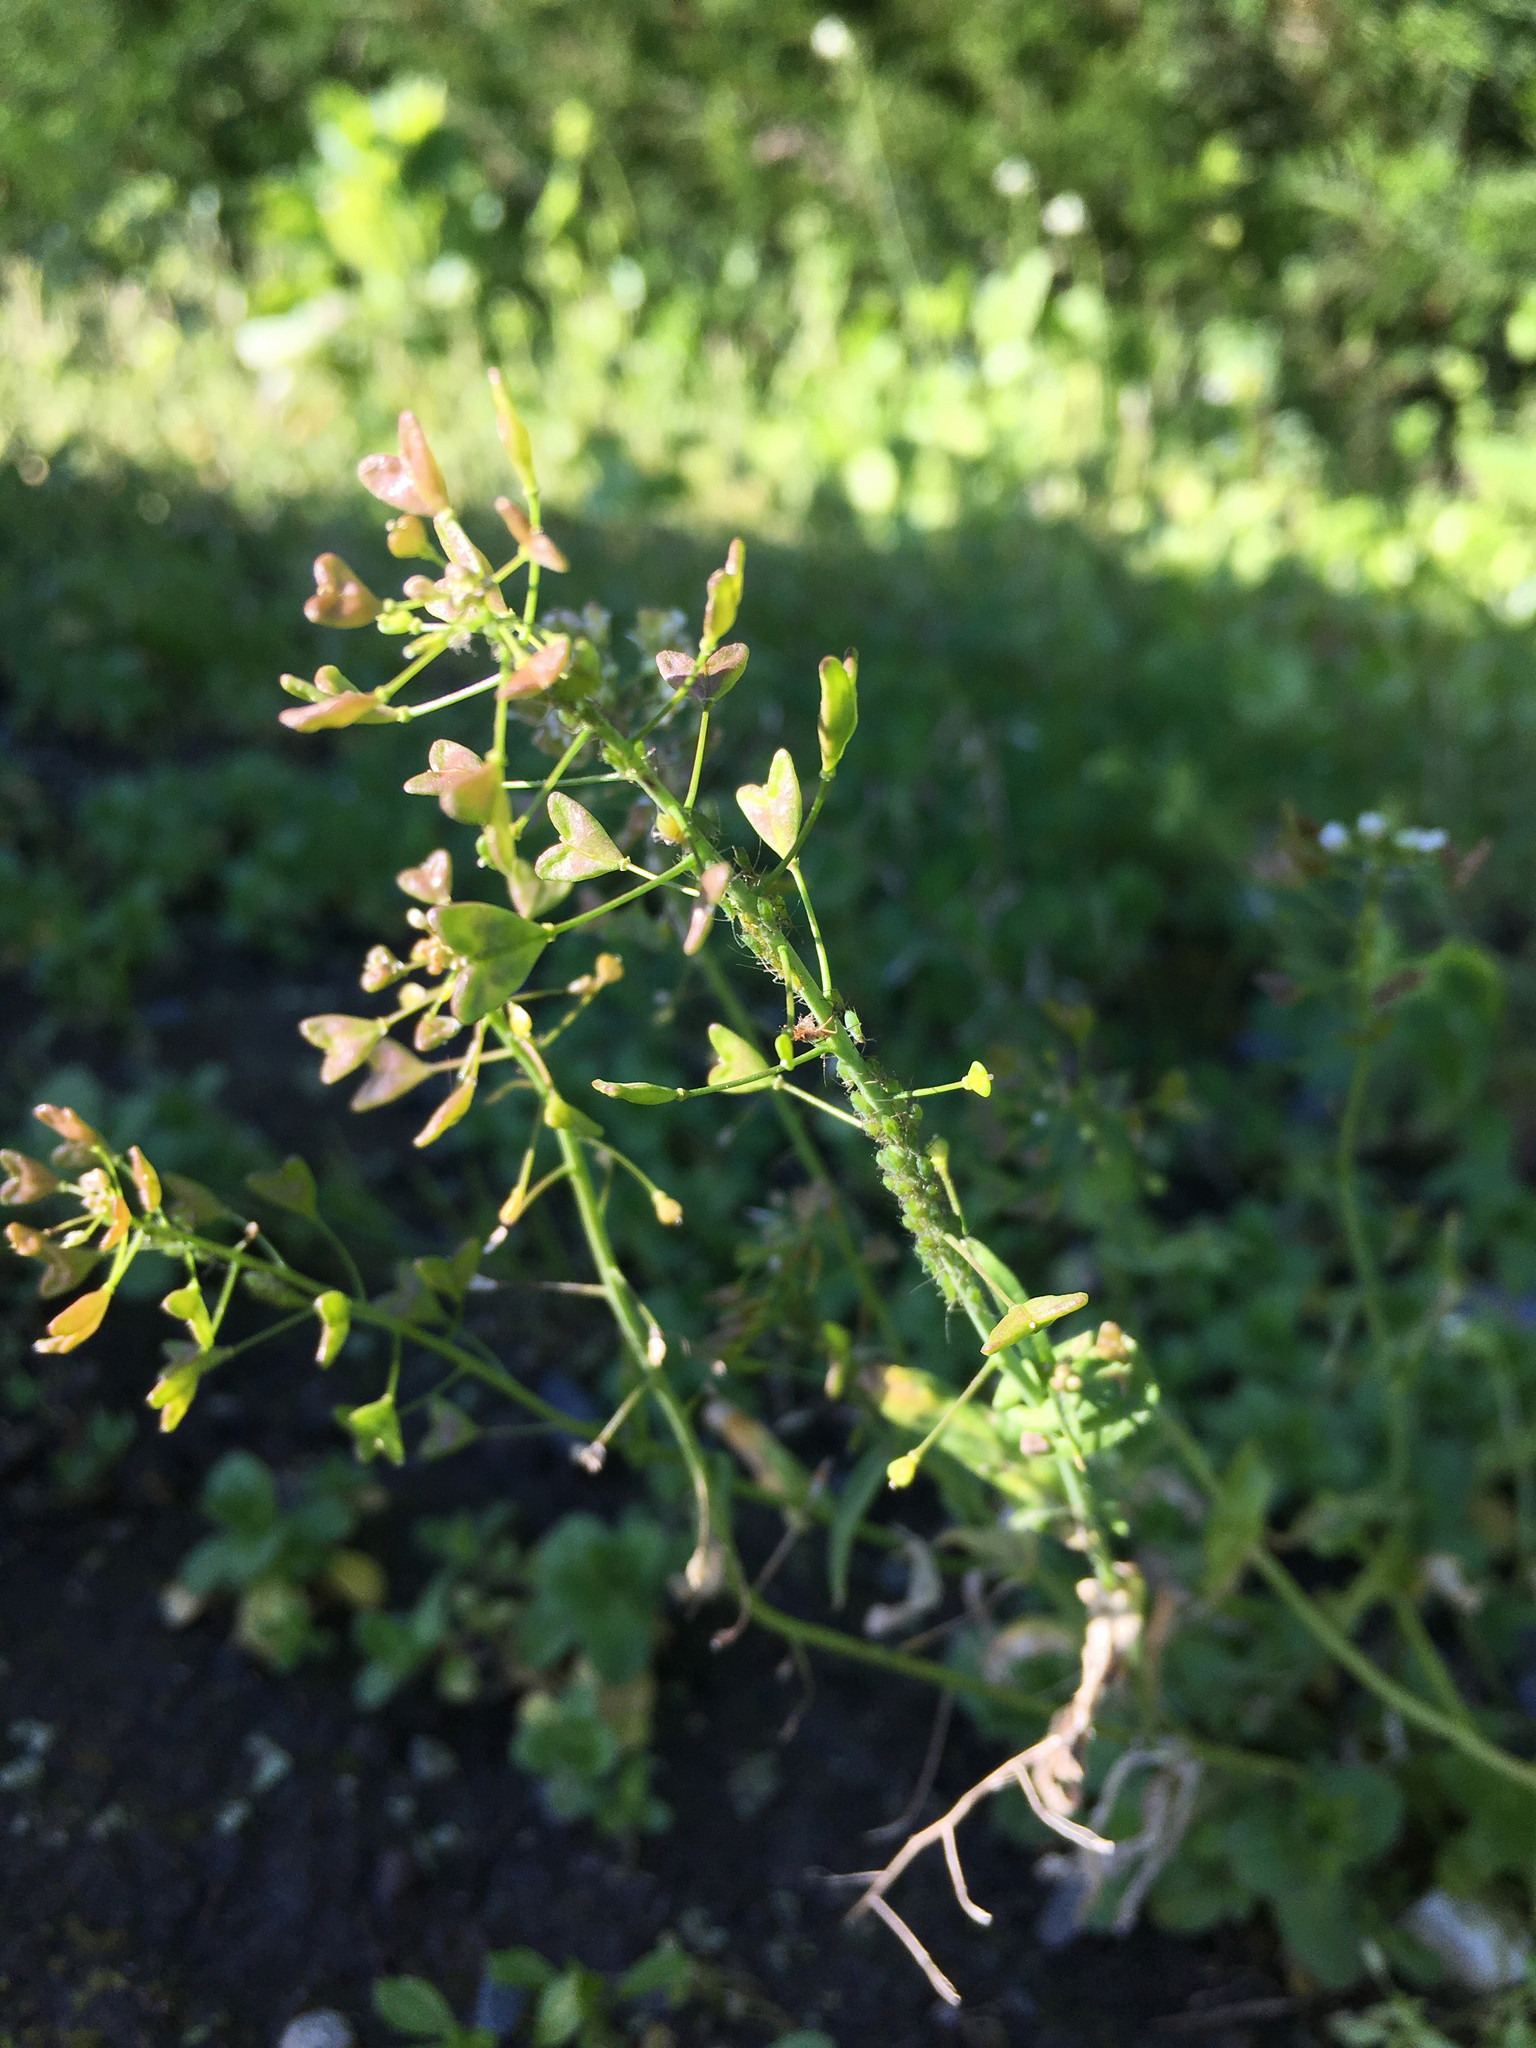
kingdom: Plantae
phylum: Tracheophyta
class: Magnoliopsida
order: Brassicales
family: Brassicaceae
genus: Capsella
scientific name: Capsella bursa-pastoris
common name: Shepherd's purse
